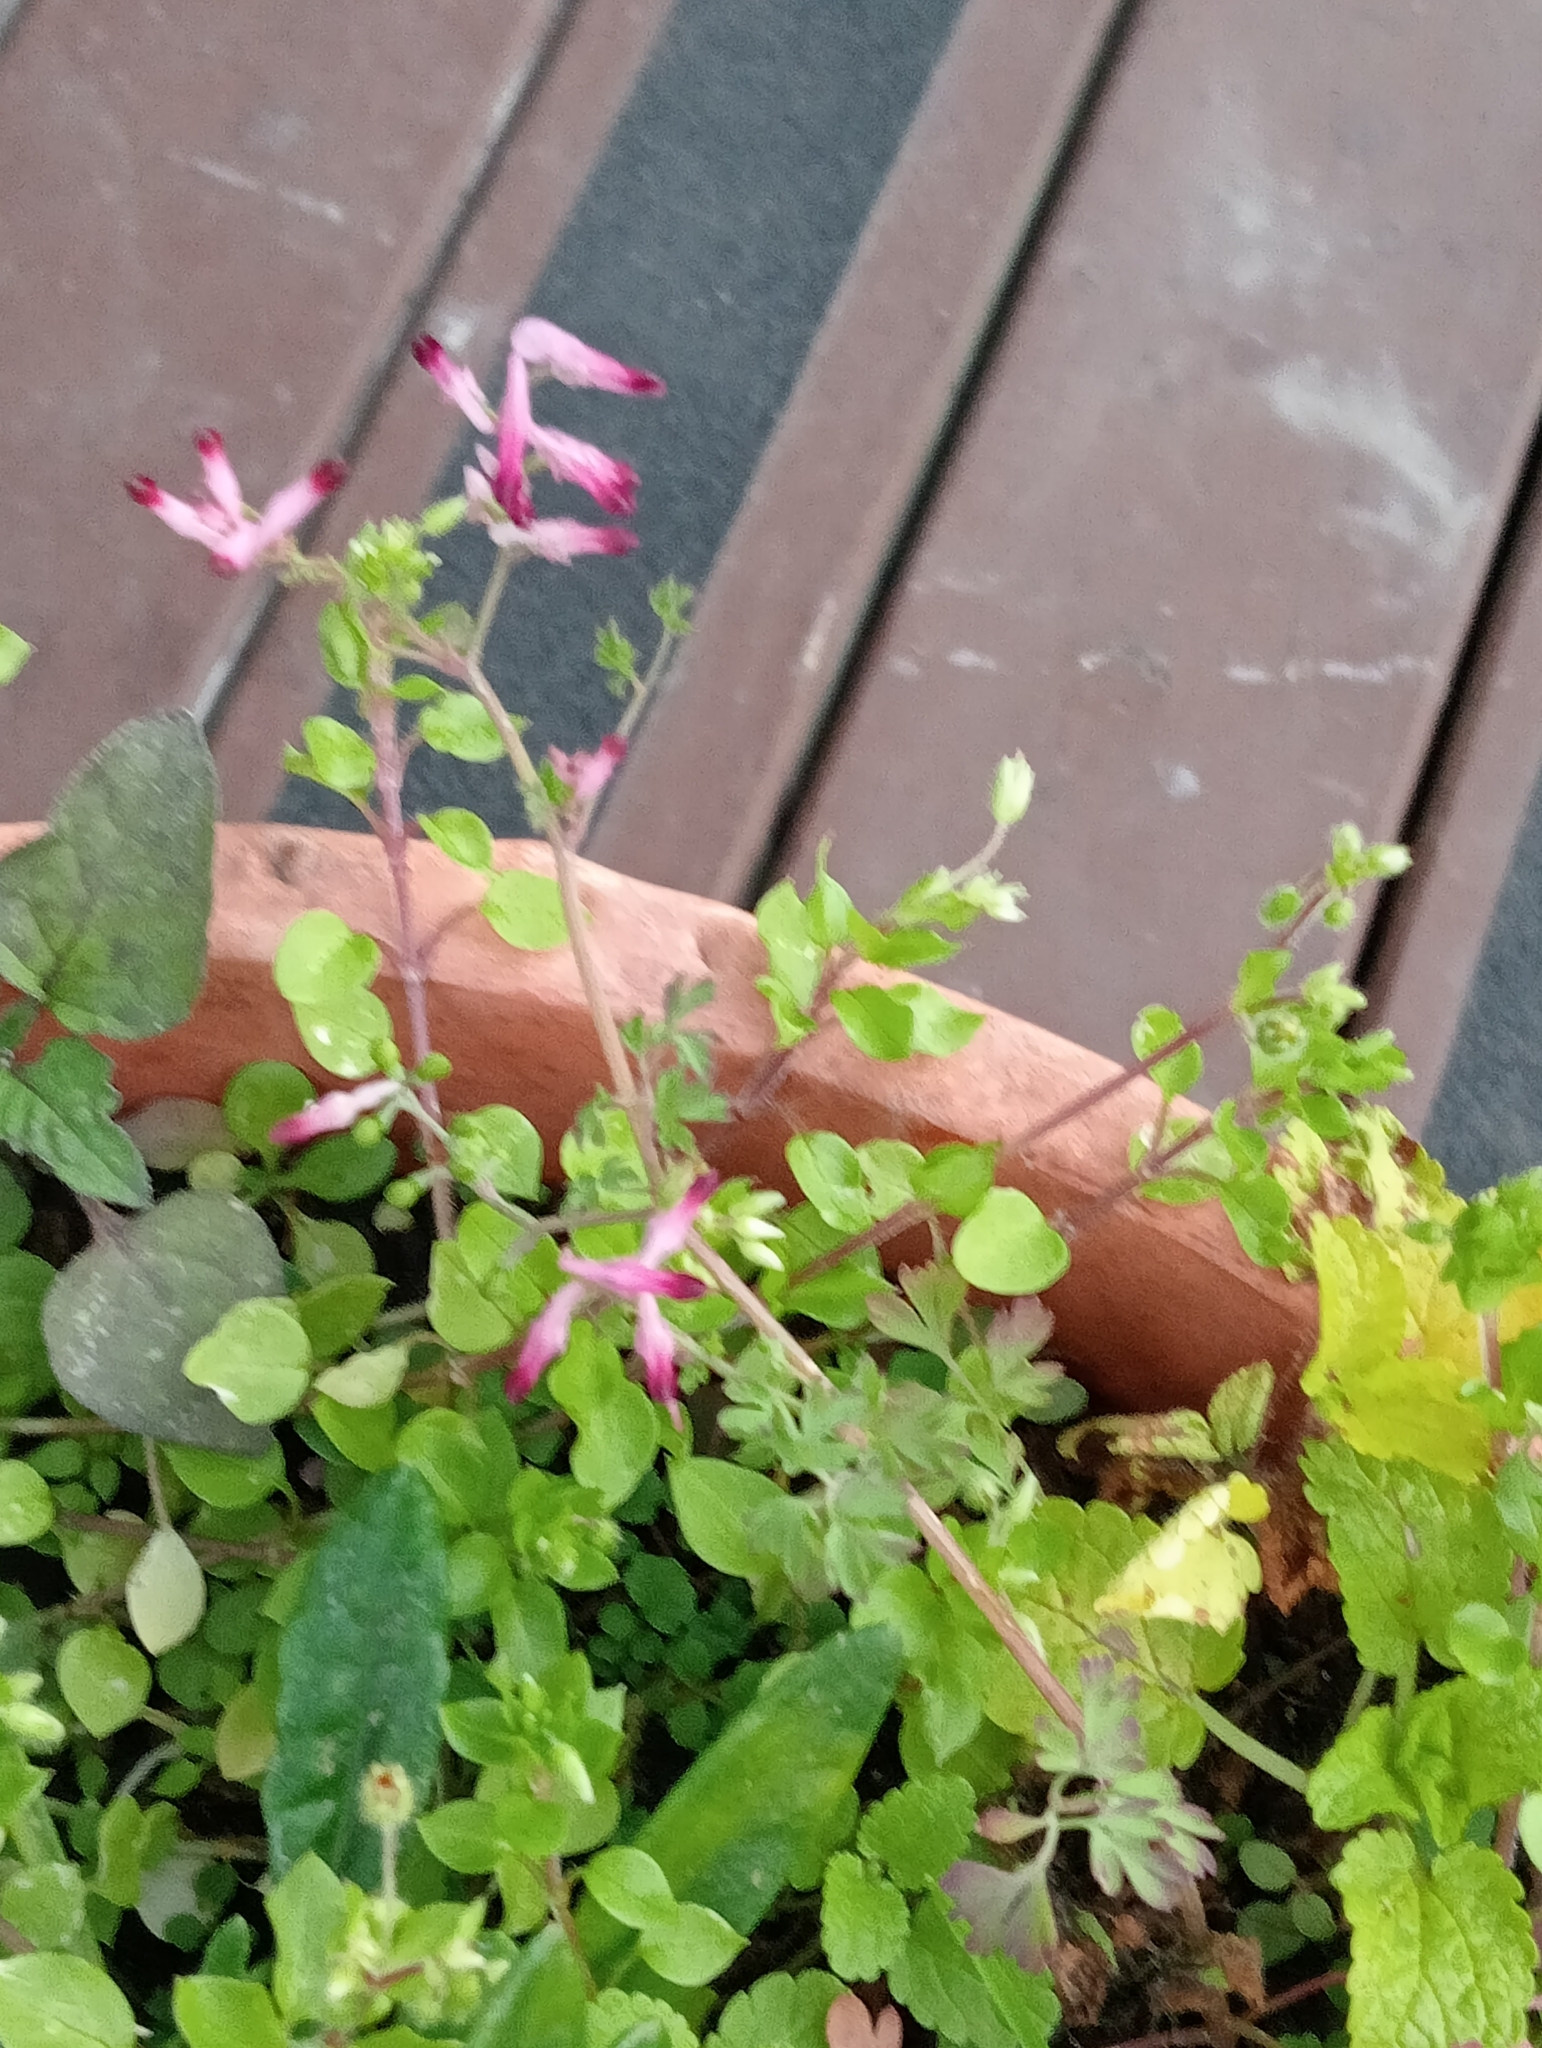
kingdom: Plantae
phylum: Tracheophyta
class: Magnoliopsida
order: Ranunculales
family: Papaveraceae
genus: Fumaria
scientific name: Fumaria muralis
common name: Common ramping-fumitory
